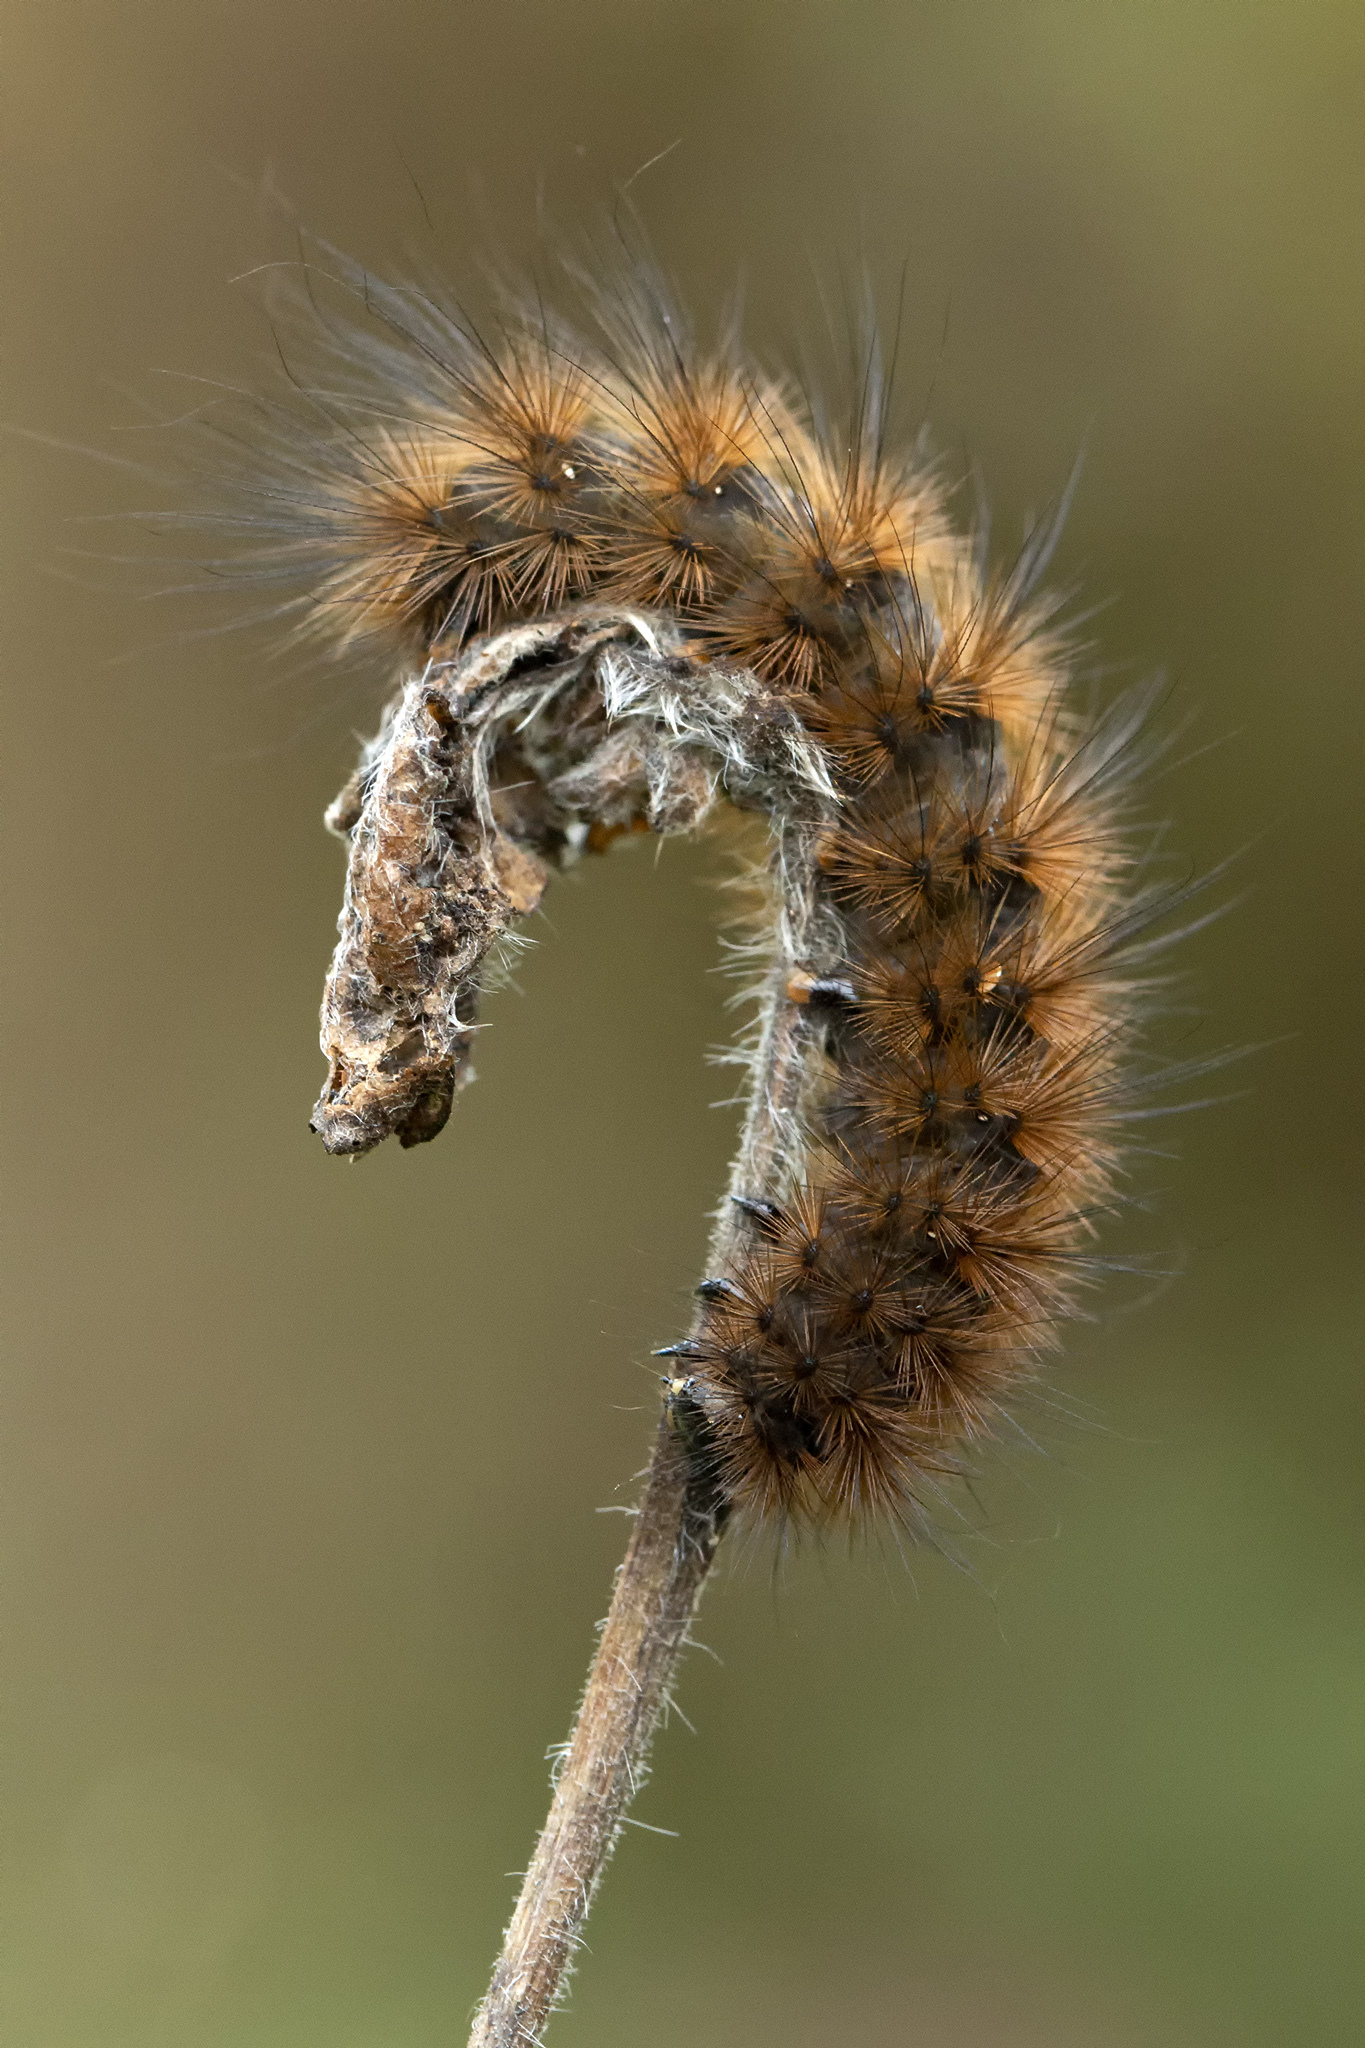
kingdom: Animalia
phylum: Arthropoda
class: Insecta
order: Lepidoptera
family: Erebidae
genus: Phragmatobia
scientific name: Phragmatobia fuliginosa
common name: Ruby tiger
